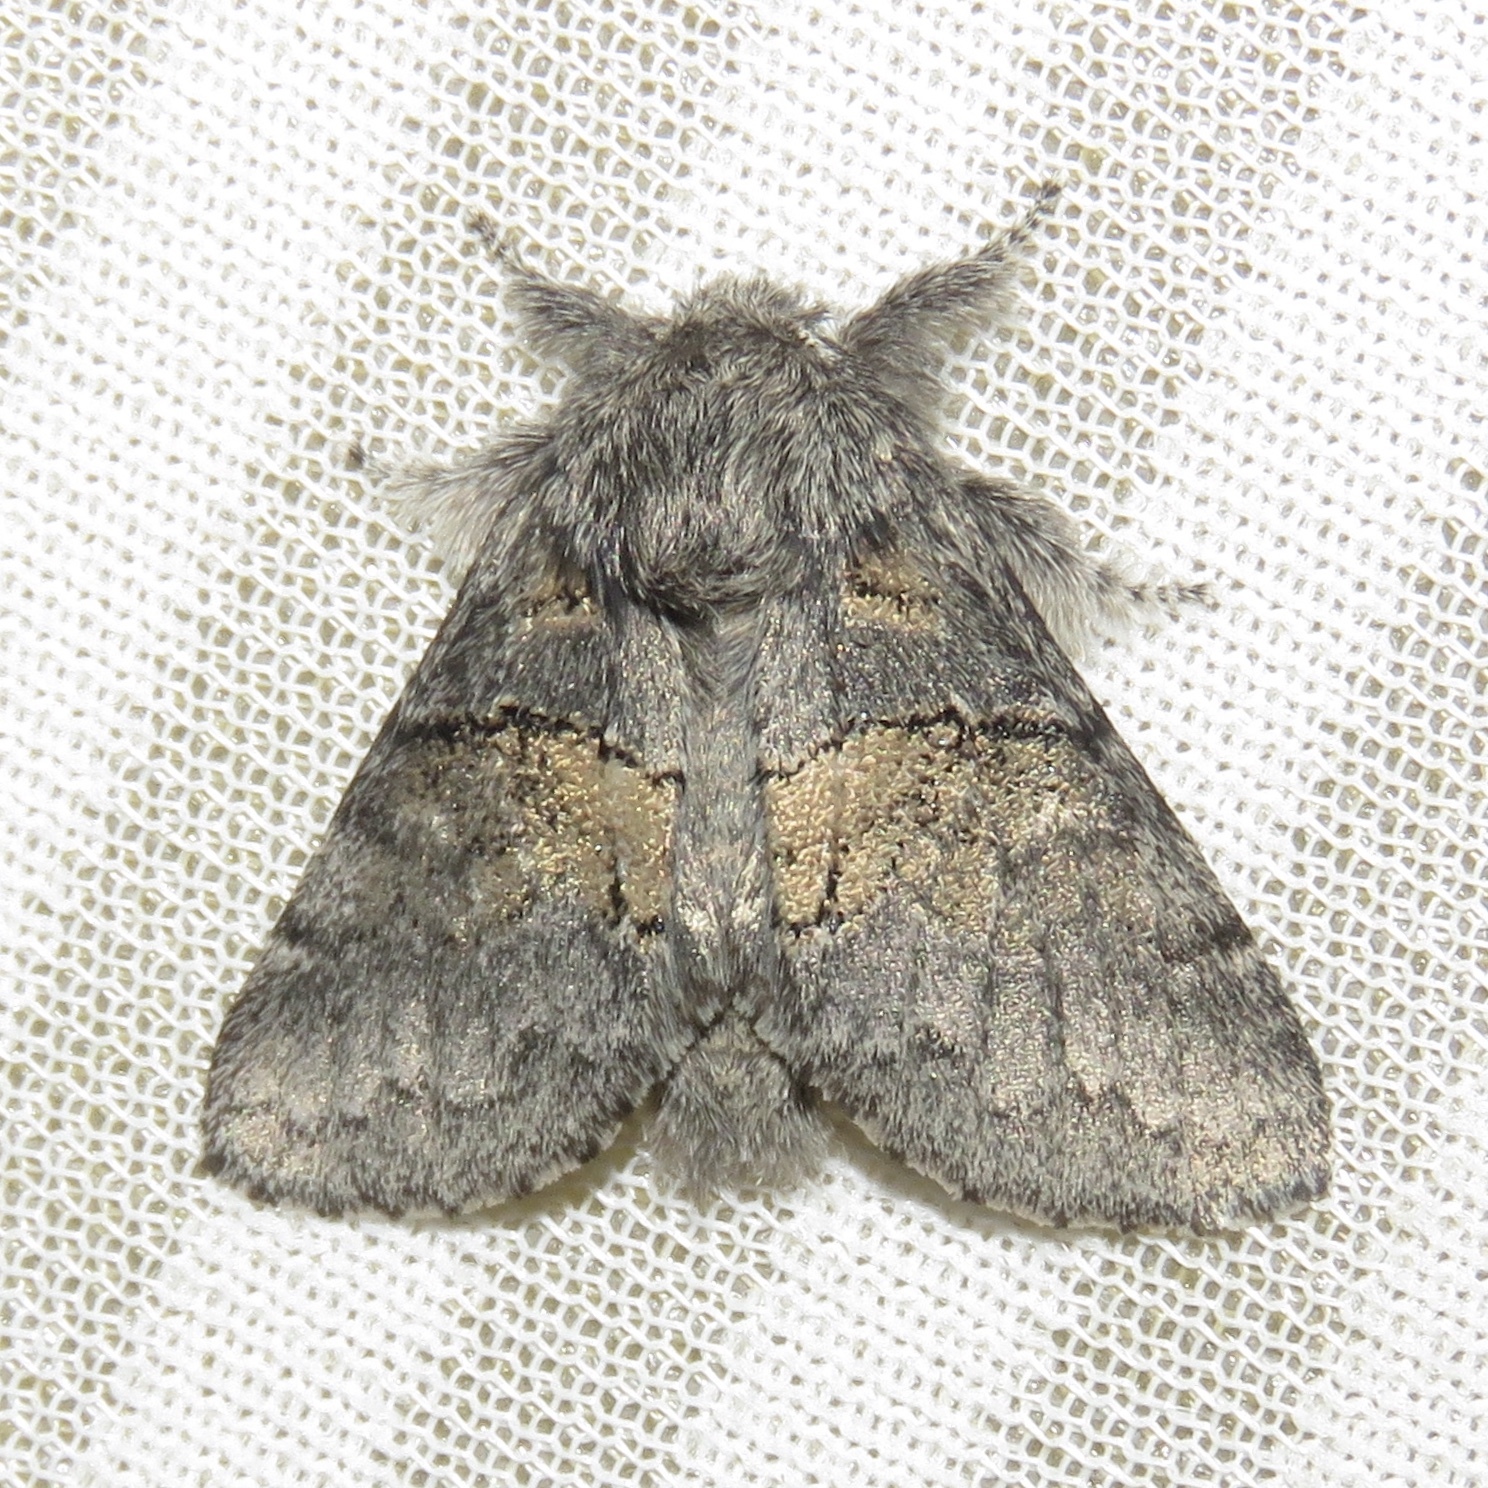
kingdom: Animalia
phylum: Arthropoda
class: Insecta
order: Lepidoptera
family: Notodontidae
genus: Gluphisia
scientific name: Gluphisia septentrionis
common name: Common gluphisia
